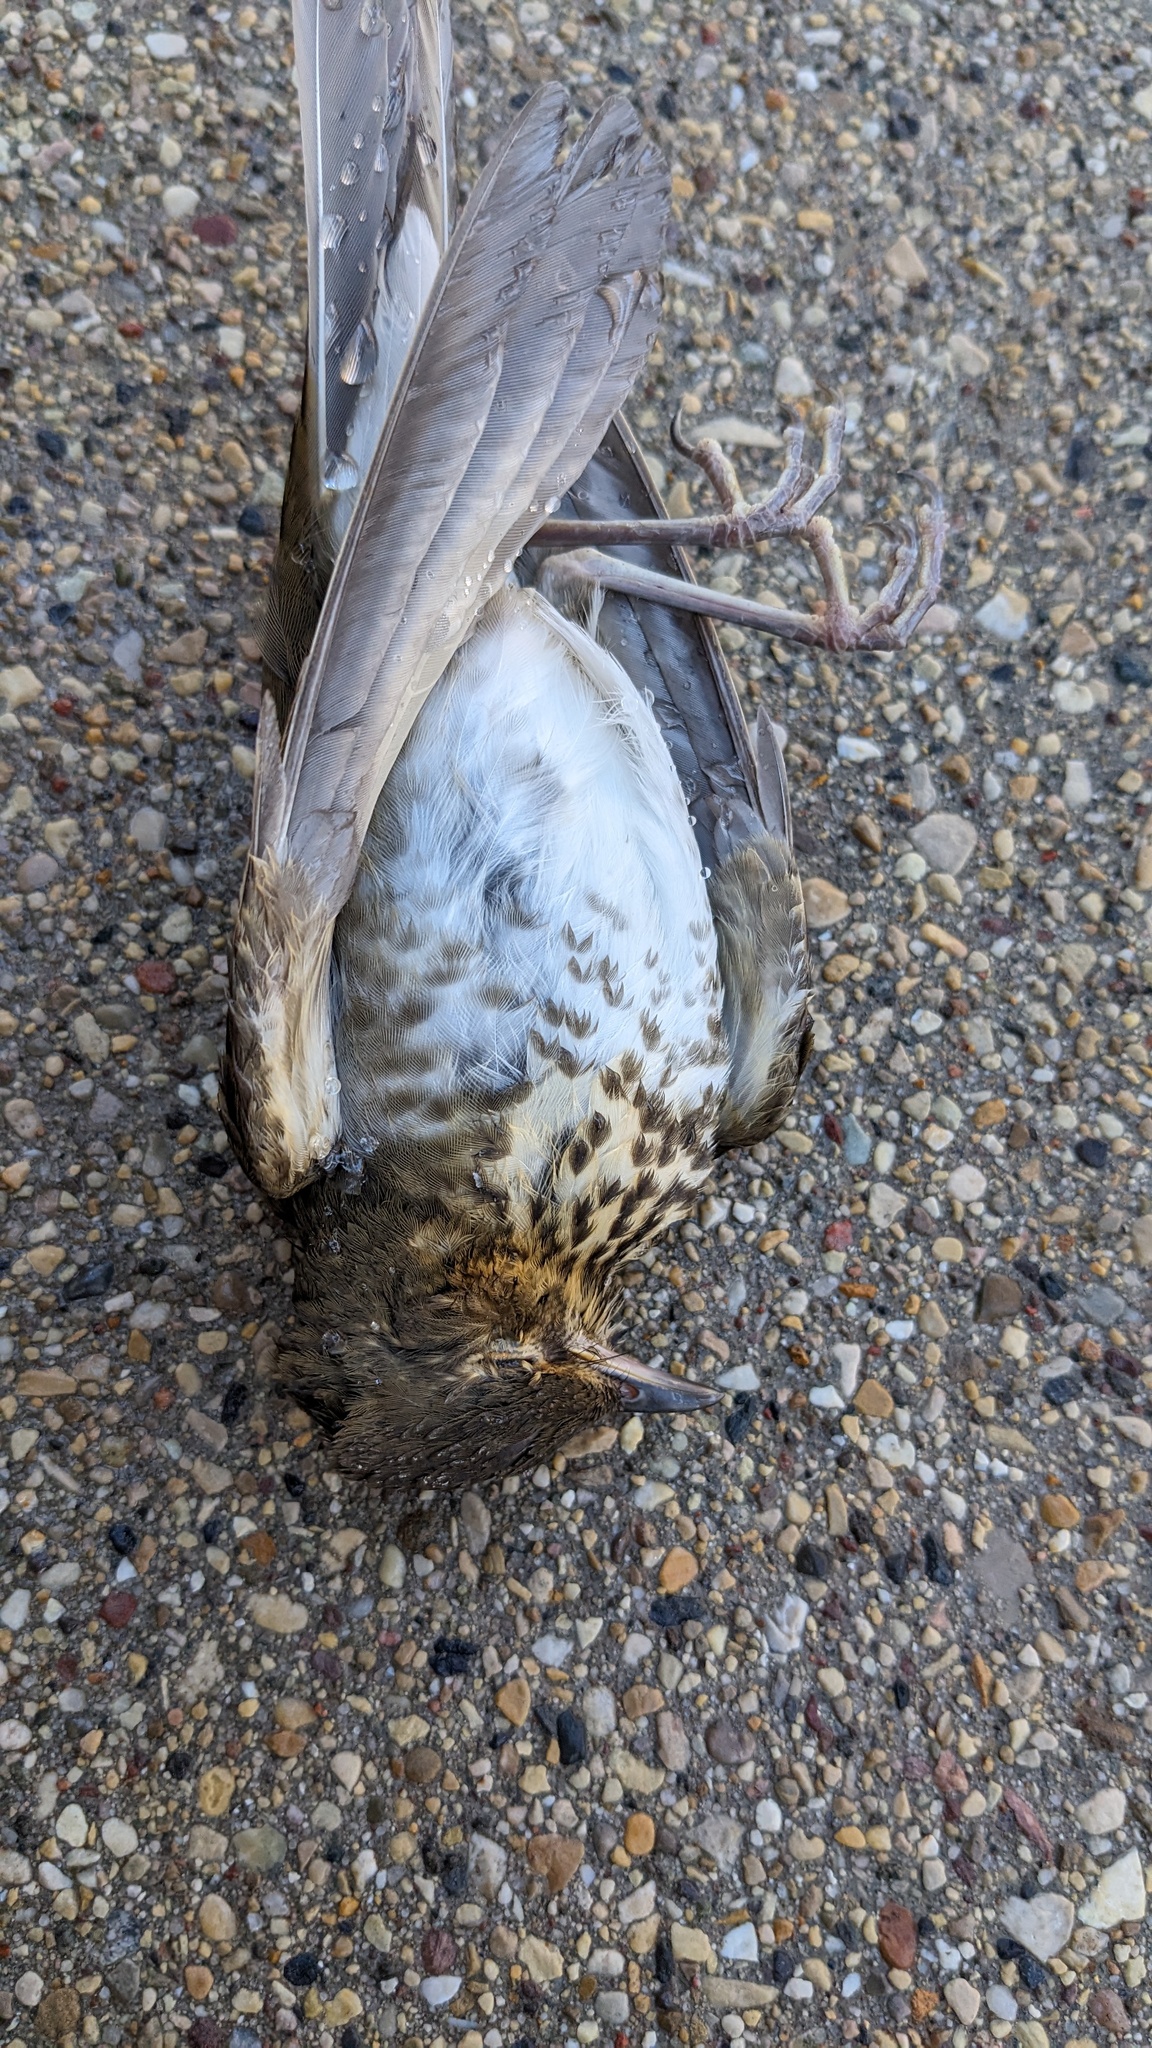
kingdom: Animalia
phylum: Chordata
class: Aves
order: Passeriformes
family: Turdidae
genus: Catharus
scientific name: Catharus ustulatus
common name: Swainson's thrush
